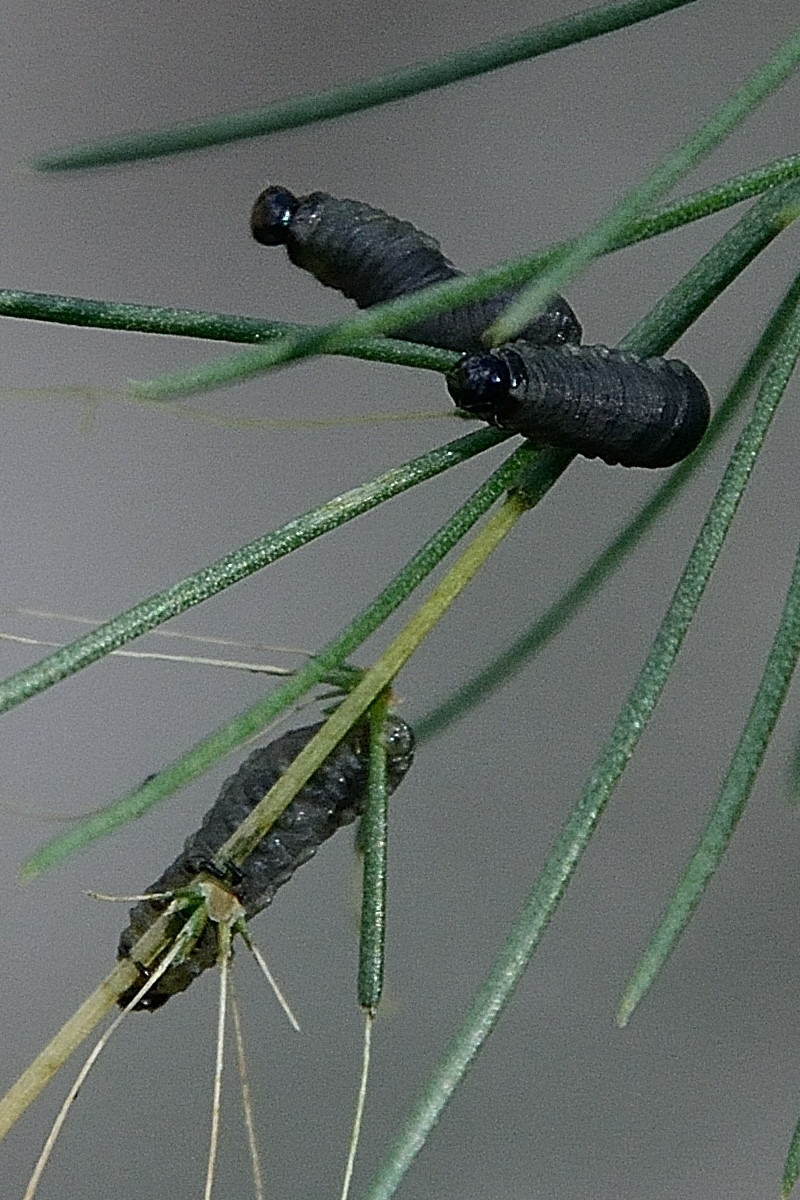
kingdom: Animalia
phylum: Arthropoda
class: Insecta
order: Coleoptera
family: Chrysomelidae
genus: Crioceris
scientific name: Crioceris asparagi
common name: Asparagus beetle
